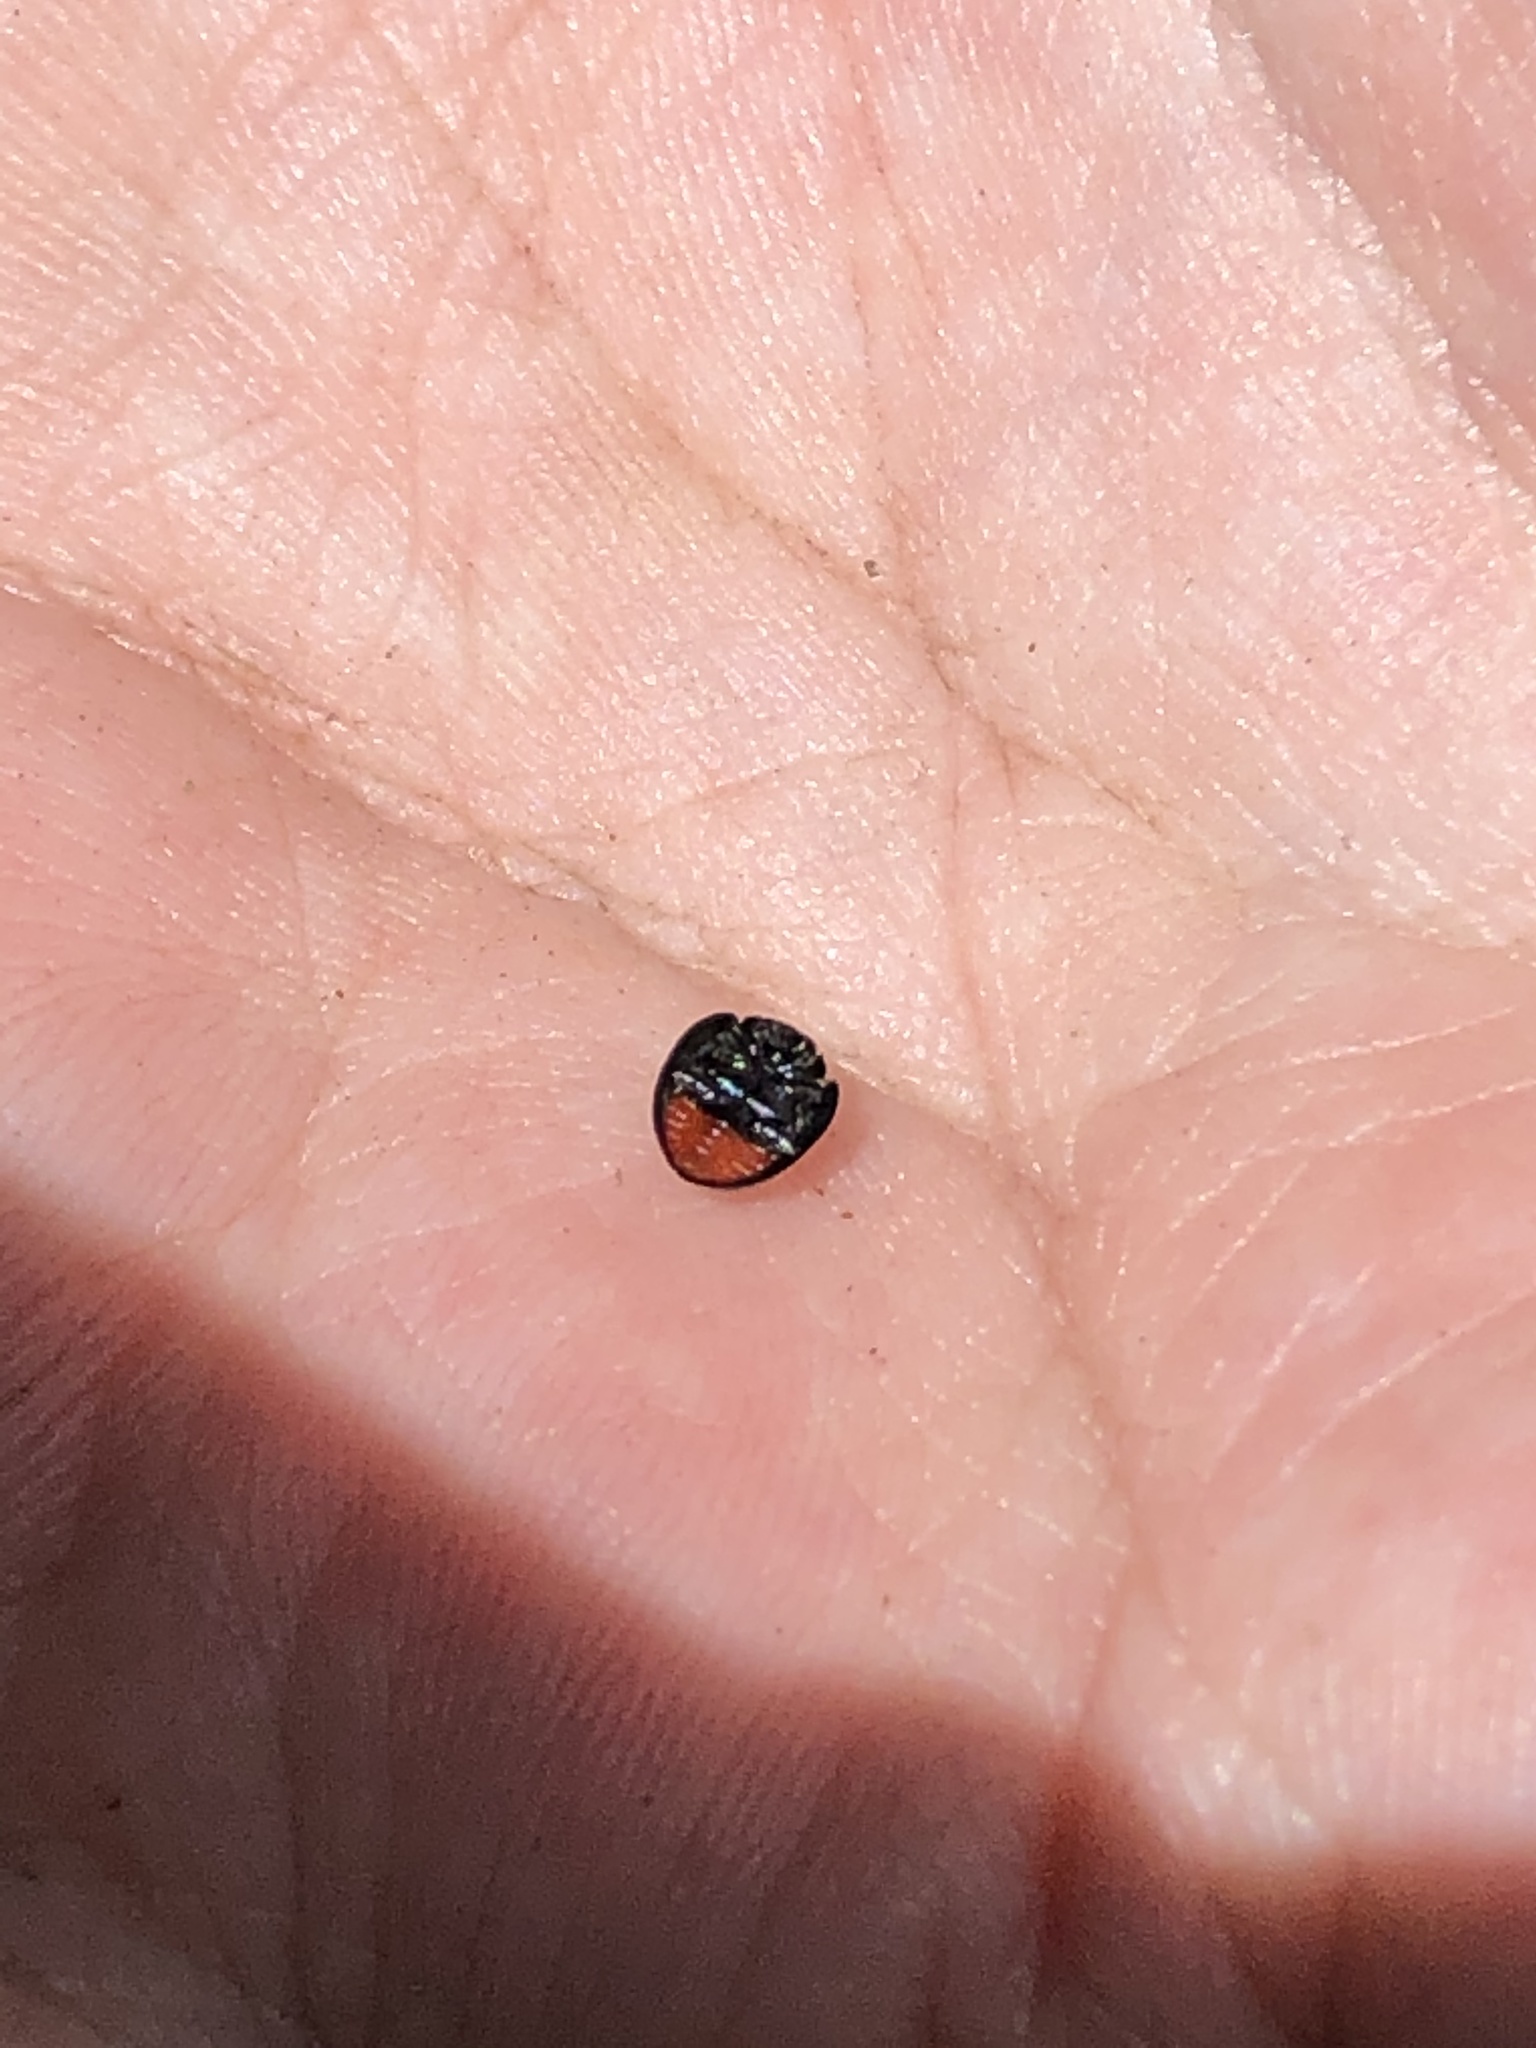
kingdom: Animalia
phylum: Arthropoda
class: Insecta
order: Coleoptera
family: Coccinellidae
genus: Chilocorus
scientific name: Chilocorus stigma
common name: Twicestabbed lady beetle
